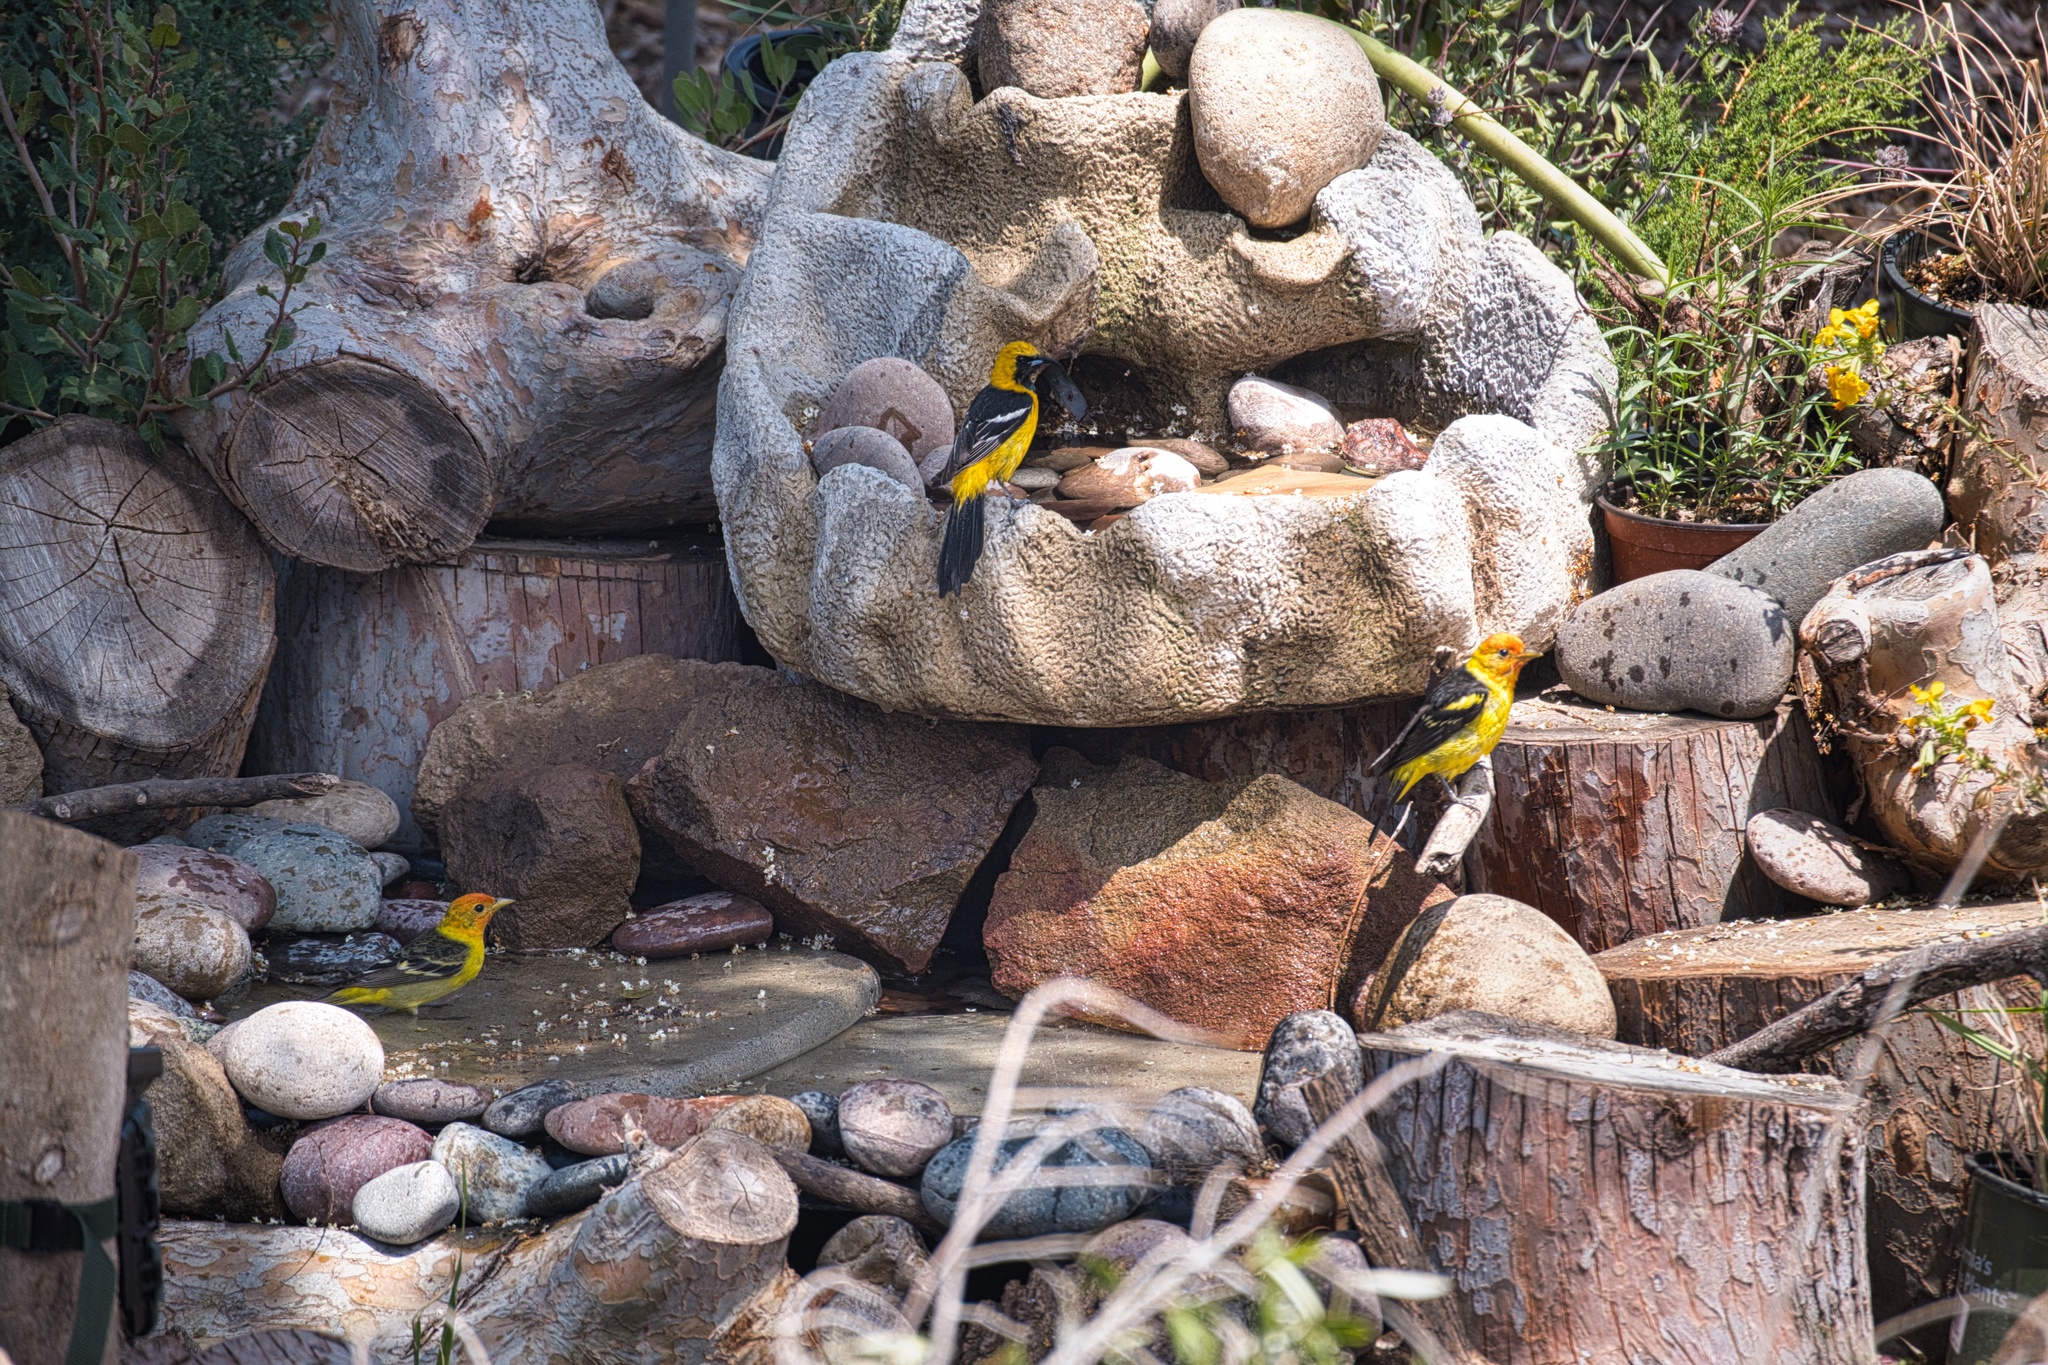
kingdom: Animalia
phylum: Chordata
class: Aves
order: Passeriformes
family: Cardinalidae
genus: Piranga
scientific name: Piranga ludoviciana
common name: Western tanager
